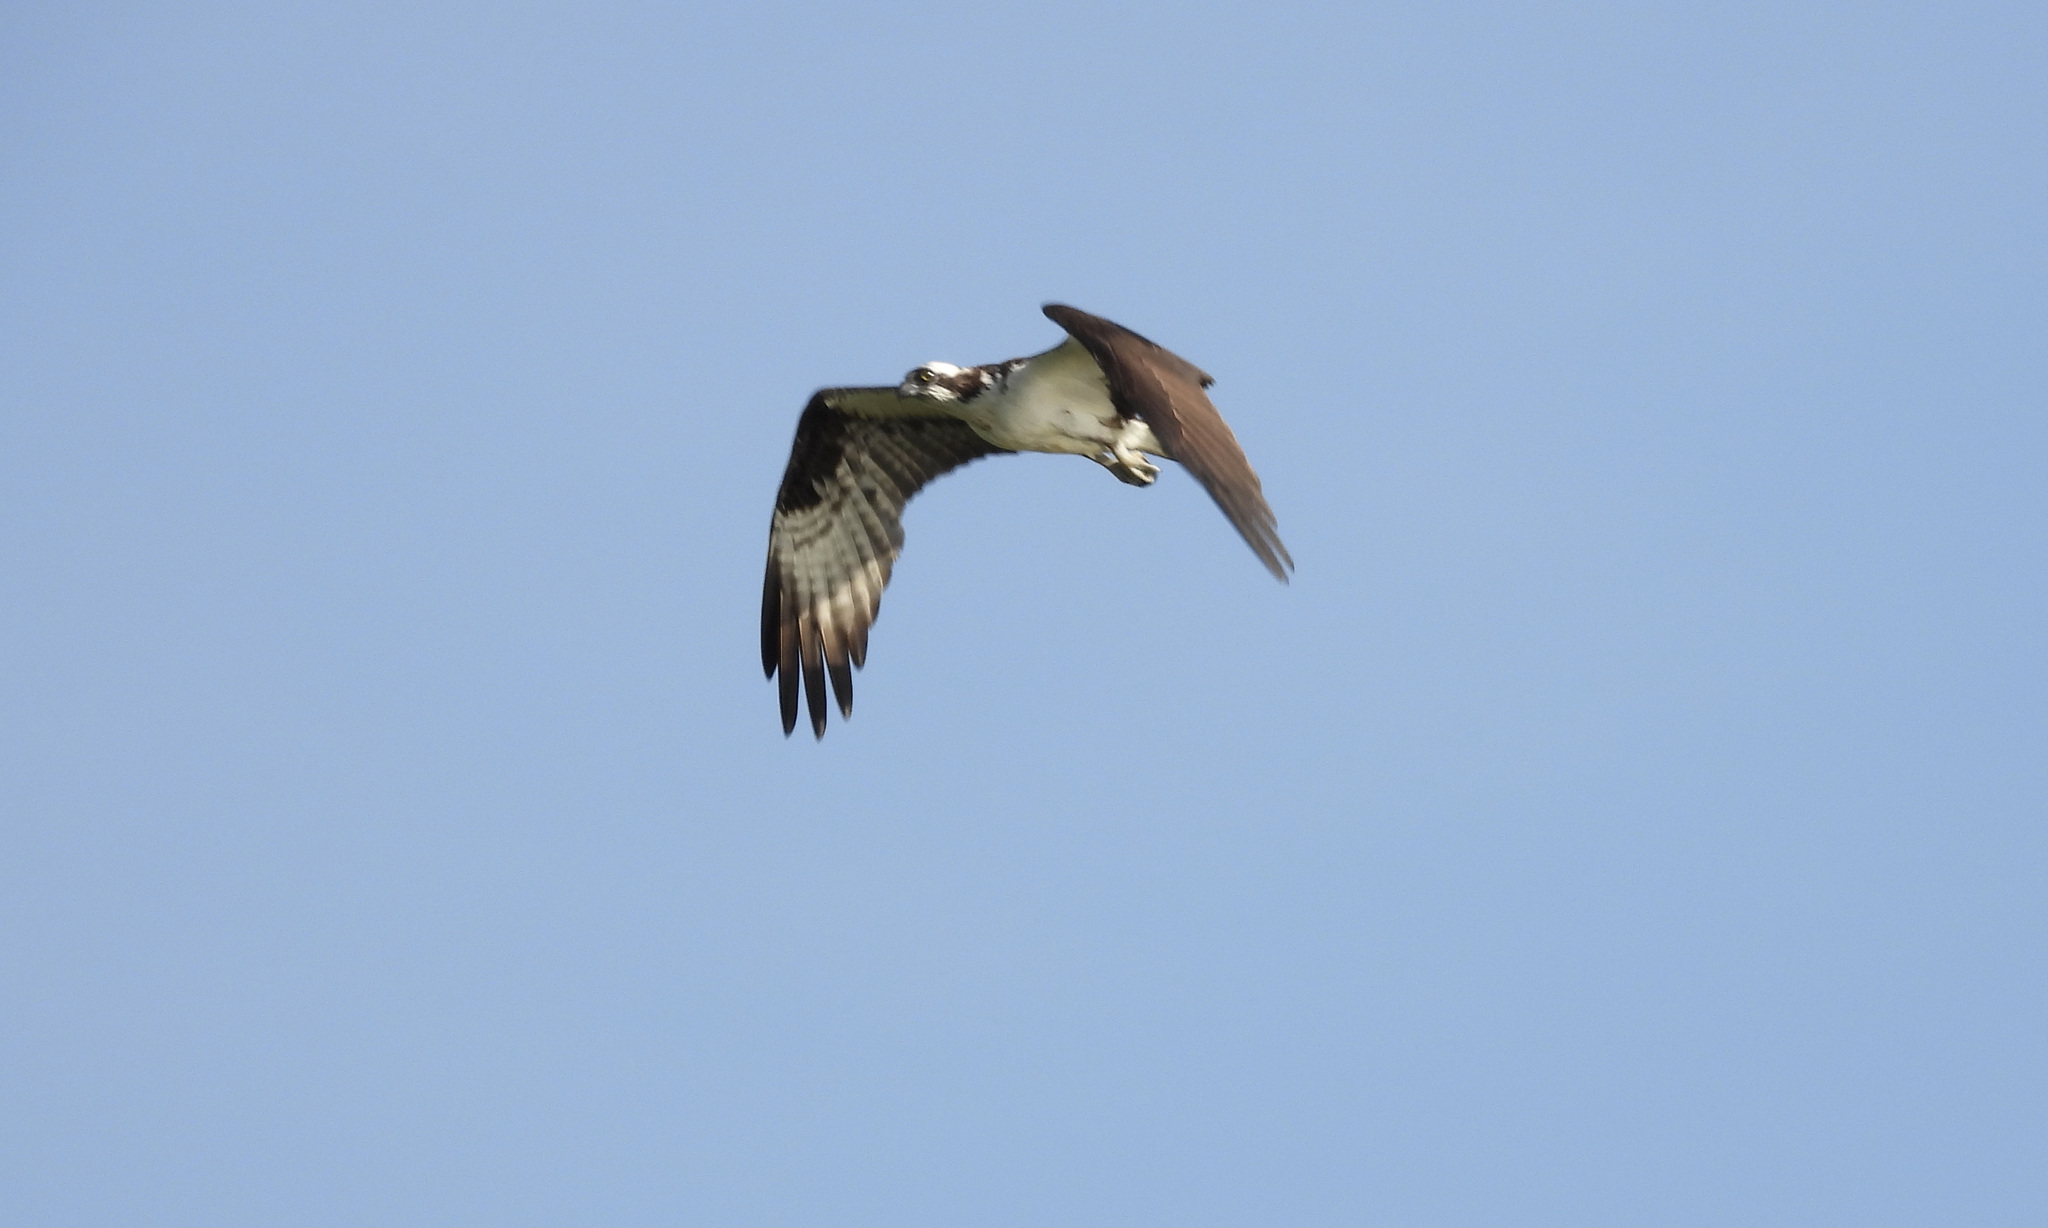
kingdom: Animalia
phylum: Chordata
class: Aves
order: Accipitriformes
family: Pandionidae
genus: Pandion
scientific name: Pandion haliaetus
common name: Osprey
